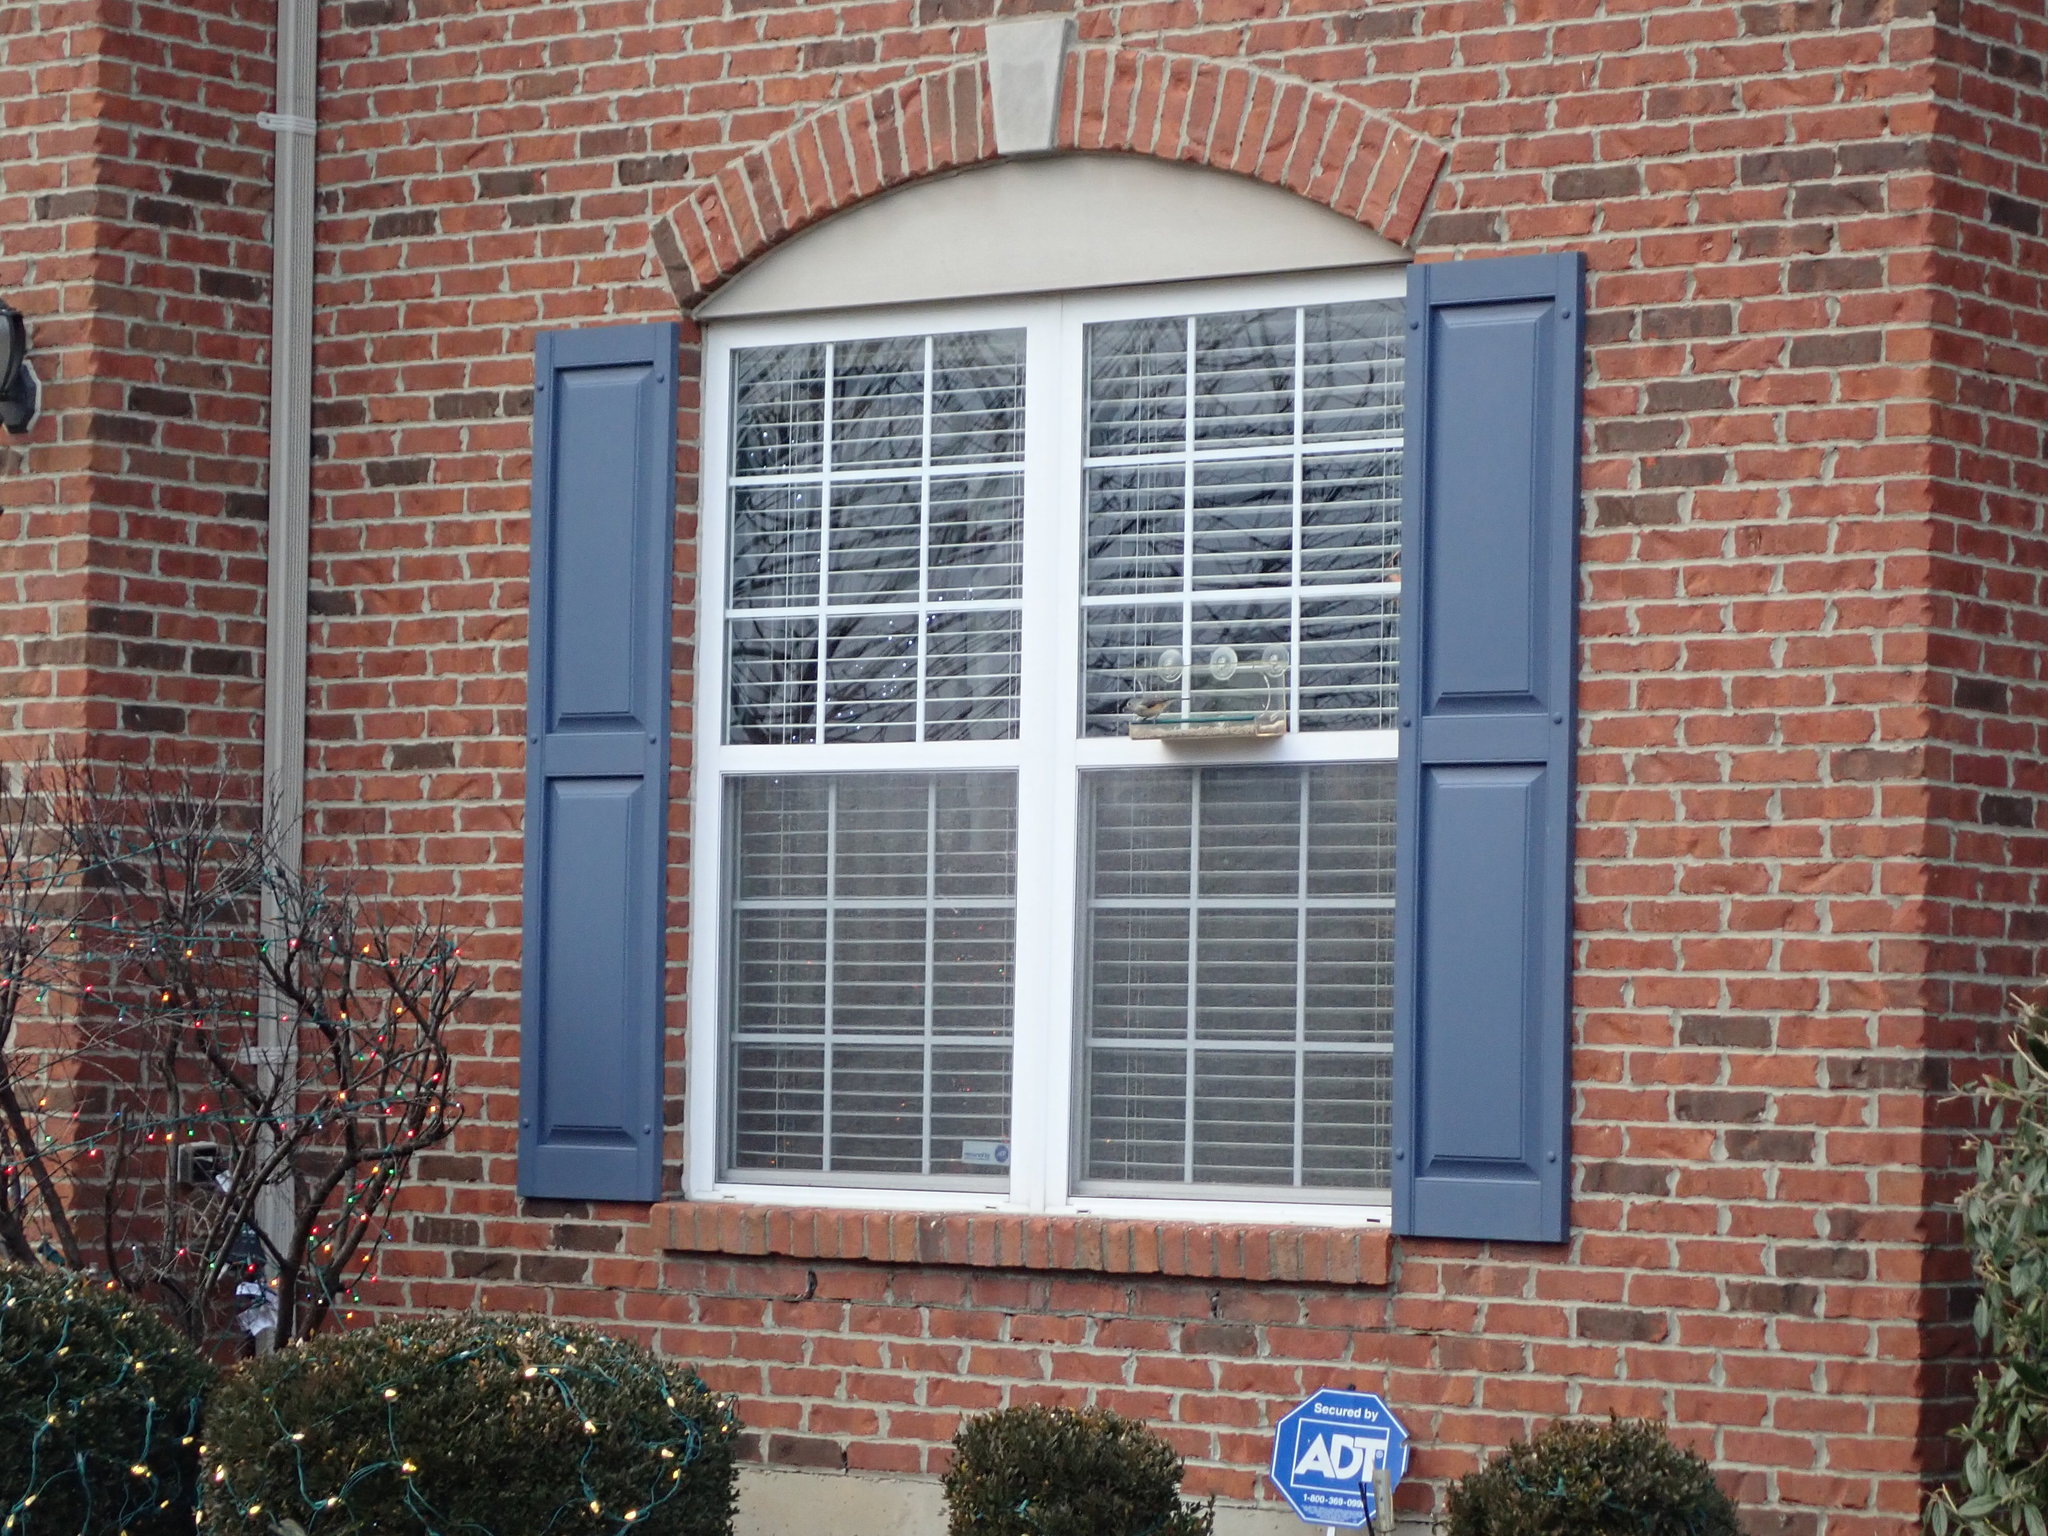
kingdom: Animalia
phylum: Chordata
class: Aves
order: Passeriformes
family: Paridae
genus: Baeolophus
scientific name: Baeolophus bicolor
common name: Tufted titmouse
